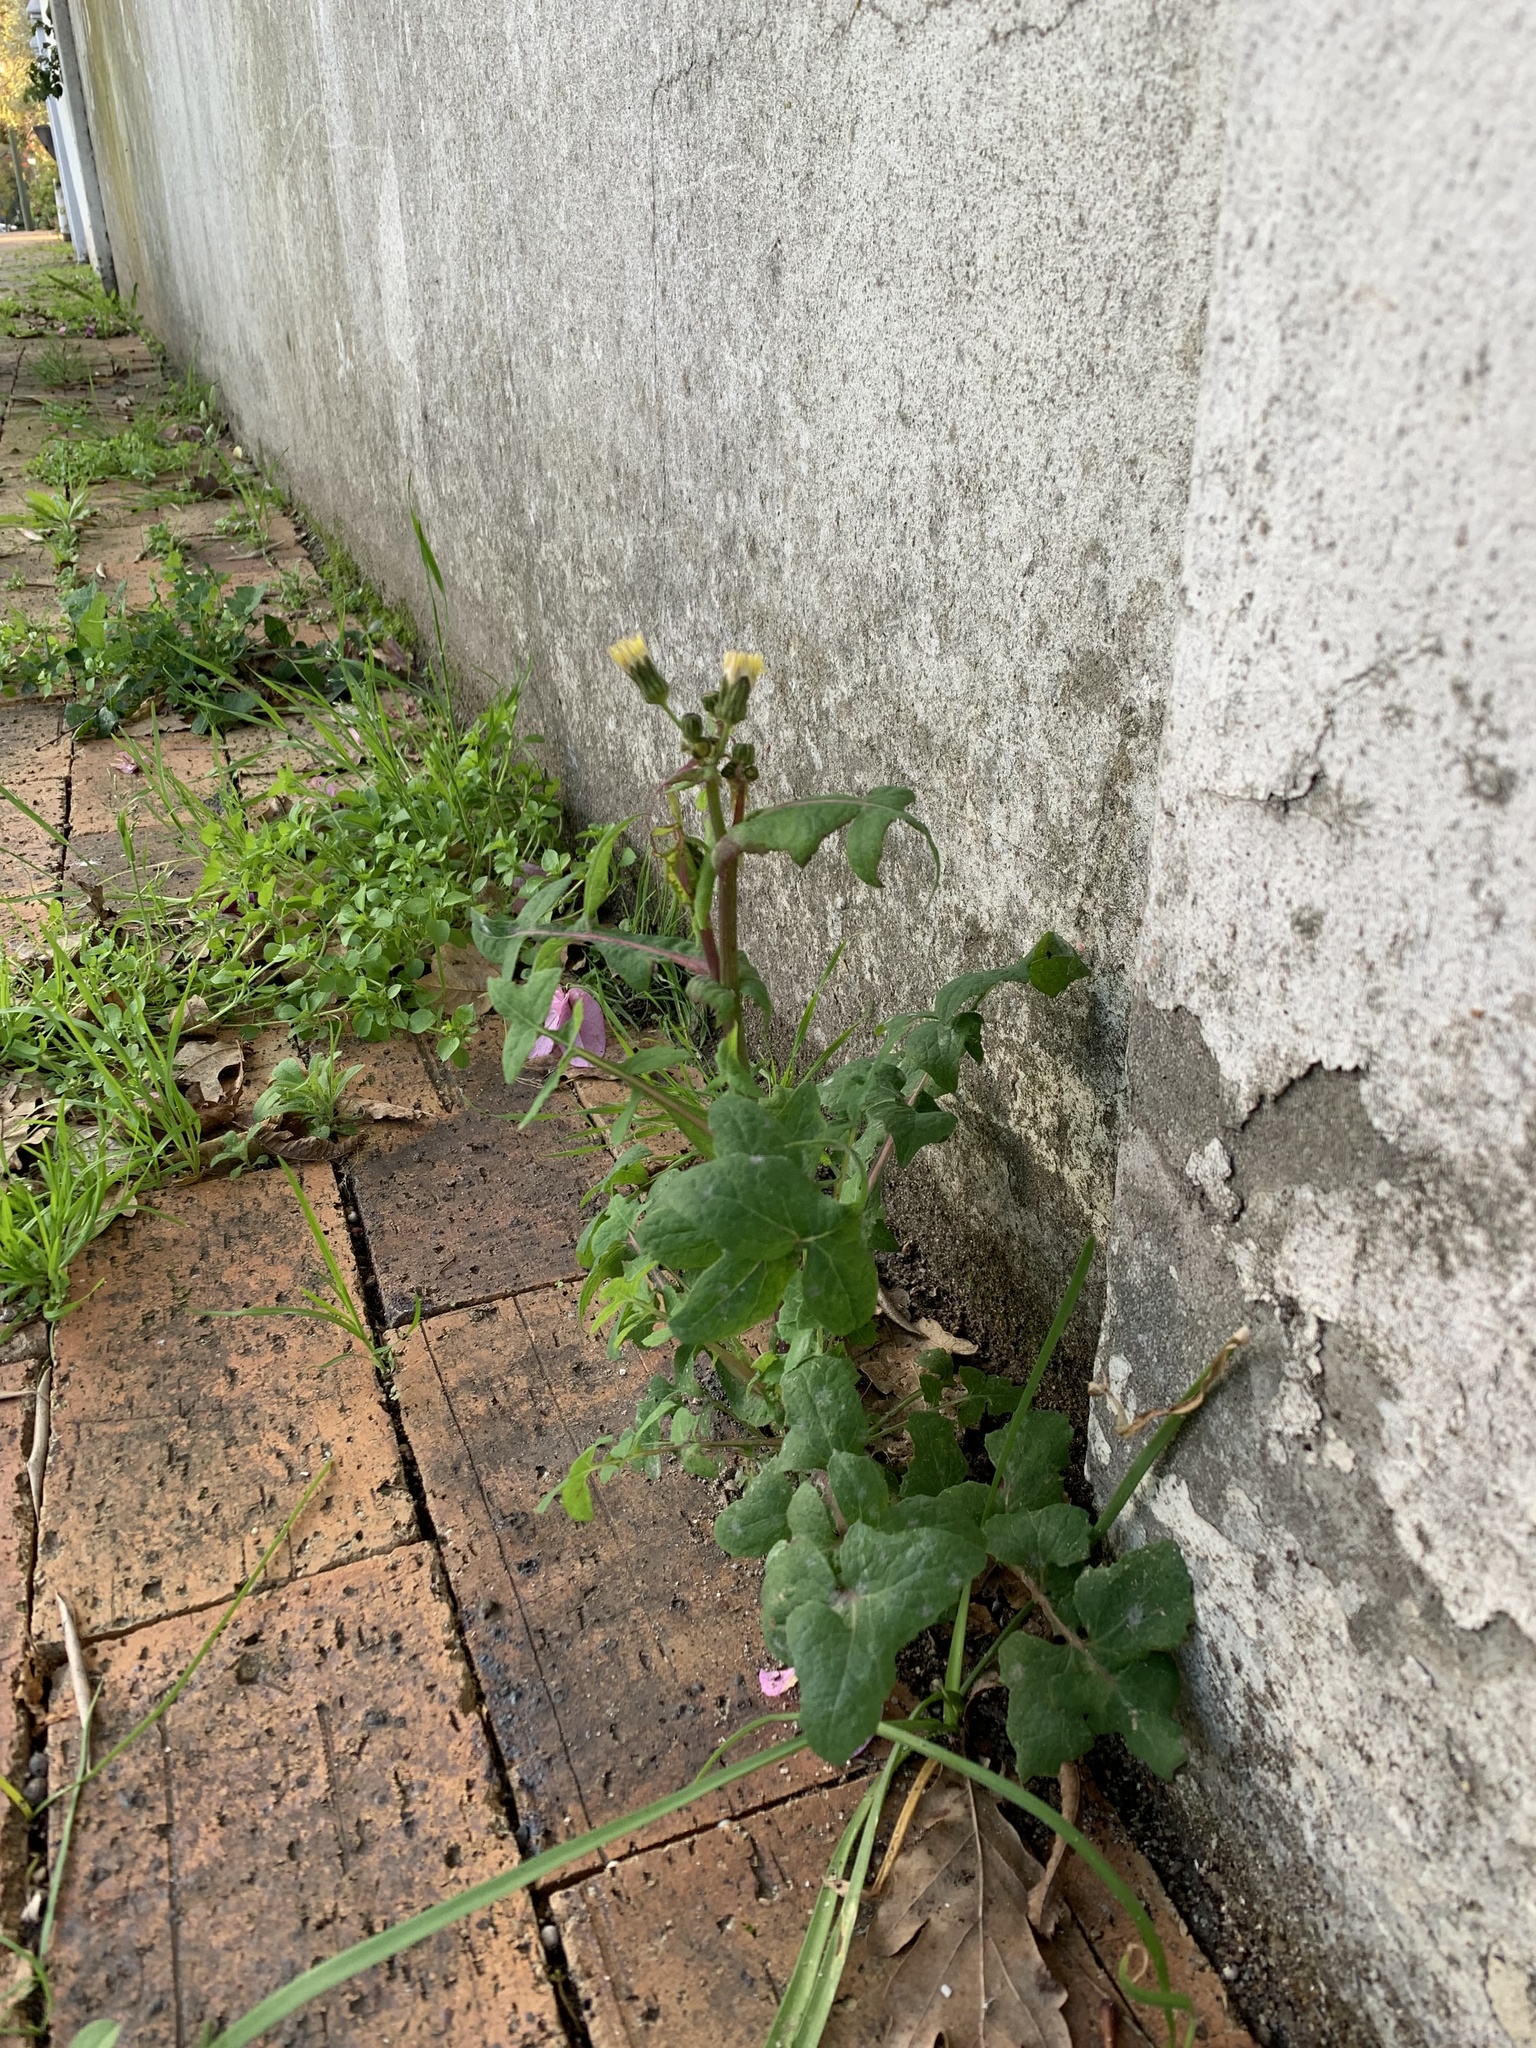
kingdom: Plantae
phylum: Tracheophyta
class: Magnoliopsida
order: Asterales
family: Asteraceae
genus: Sonchus
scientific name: Sonchus oleraceus
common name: Common sowthistle
